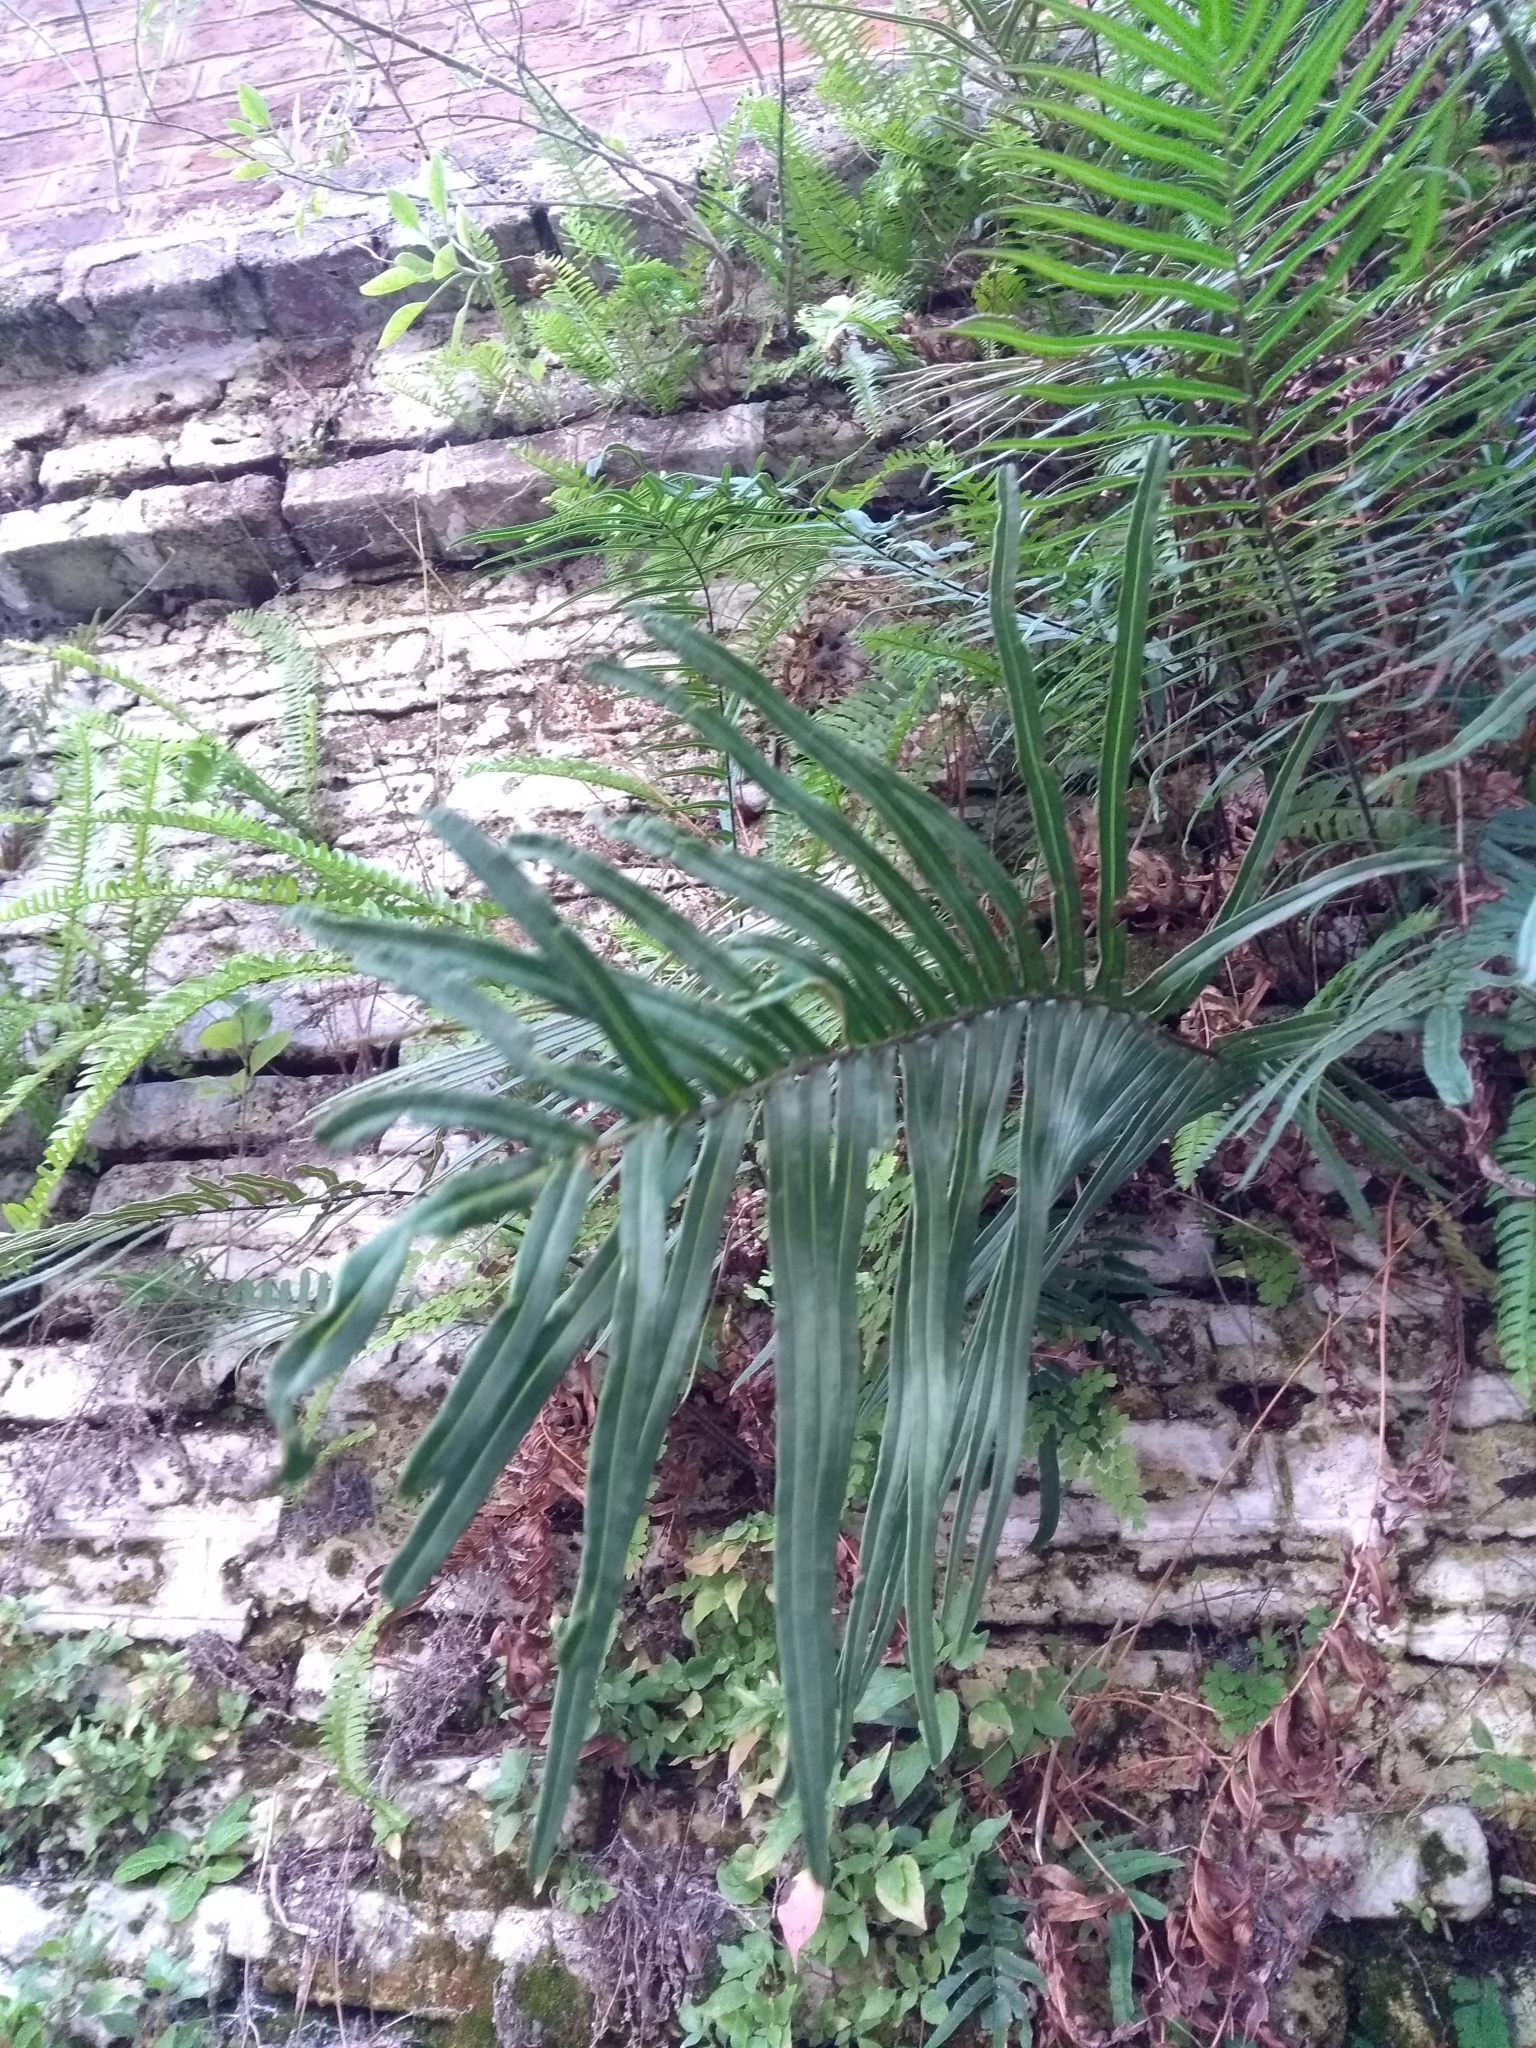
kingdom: Plantae
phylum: Tracheophyta
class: Polypodiopsida
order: Polypodiales
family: Pteridaceae
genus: Pteris
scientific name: Pteris vittata
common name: Ladder brake
